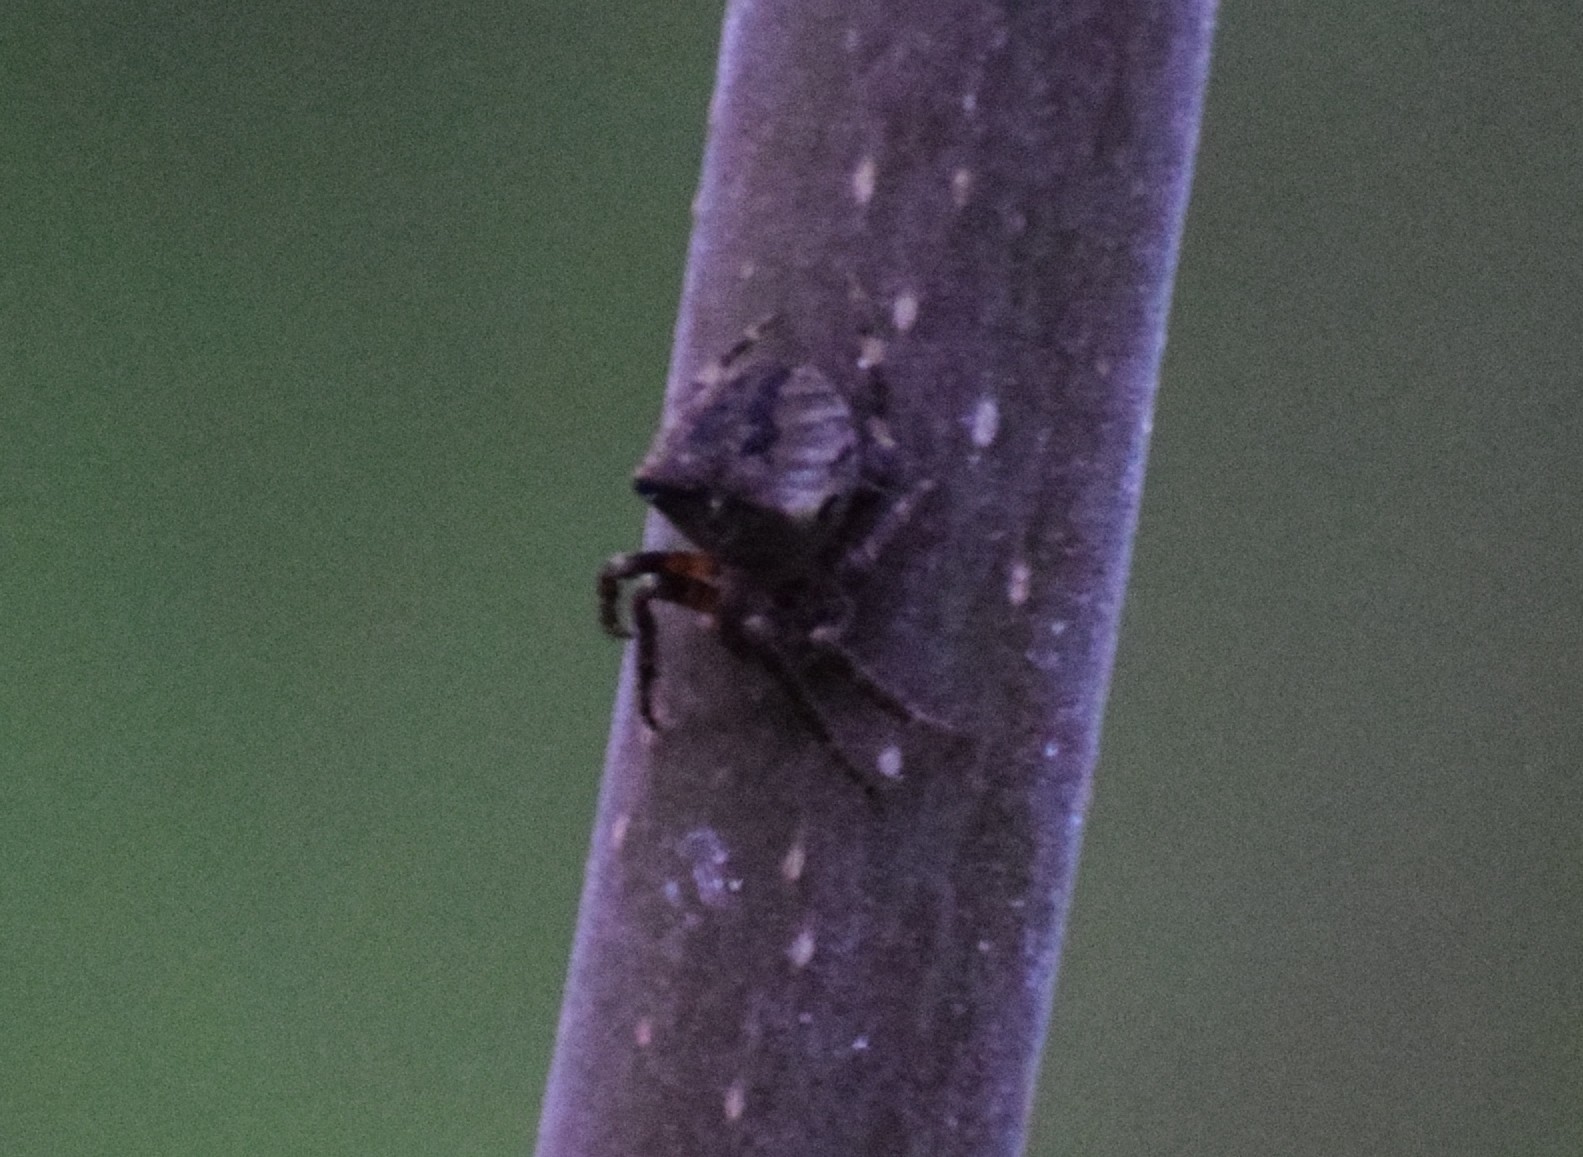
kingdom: Animalia
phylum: Arthropoda
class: Arachnida
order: Araneae
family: Araneidae
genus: Araneus
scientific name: Araneus angulatus
